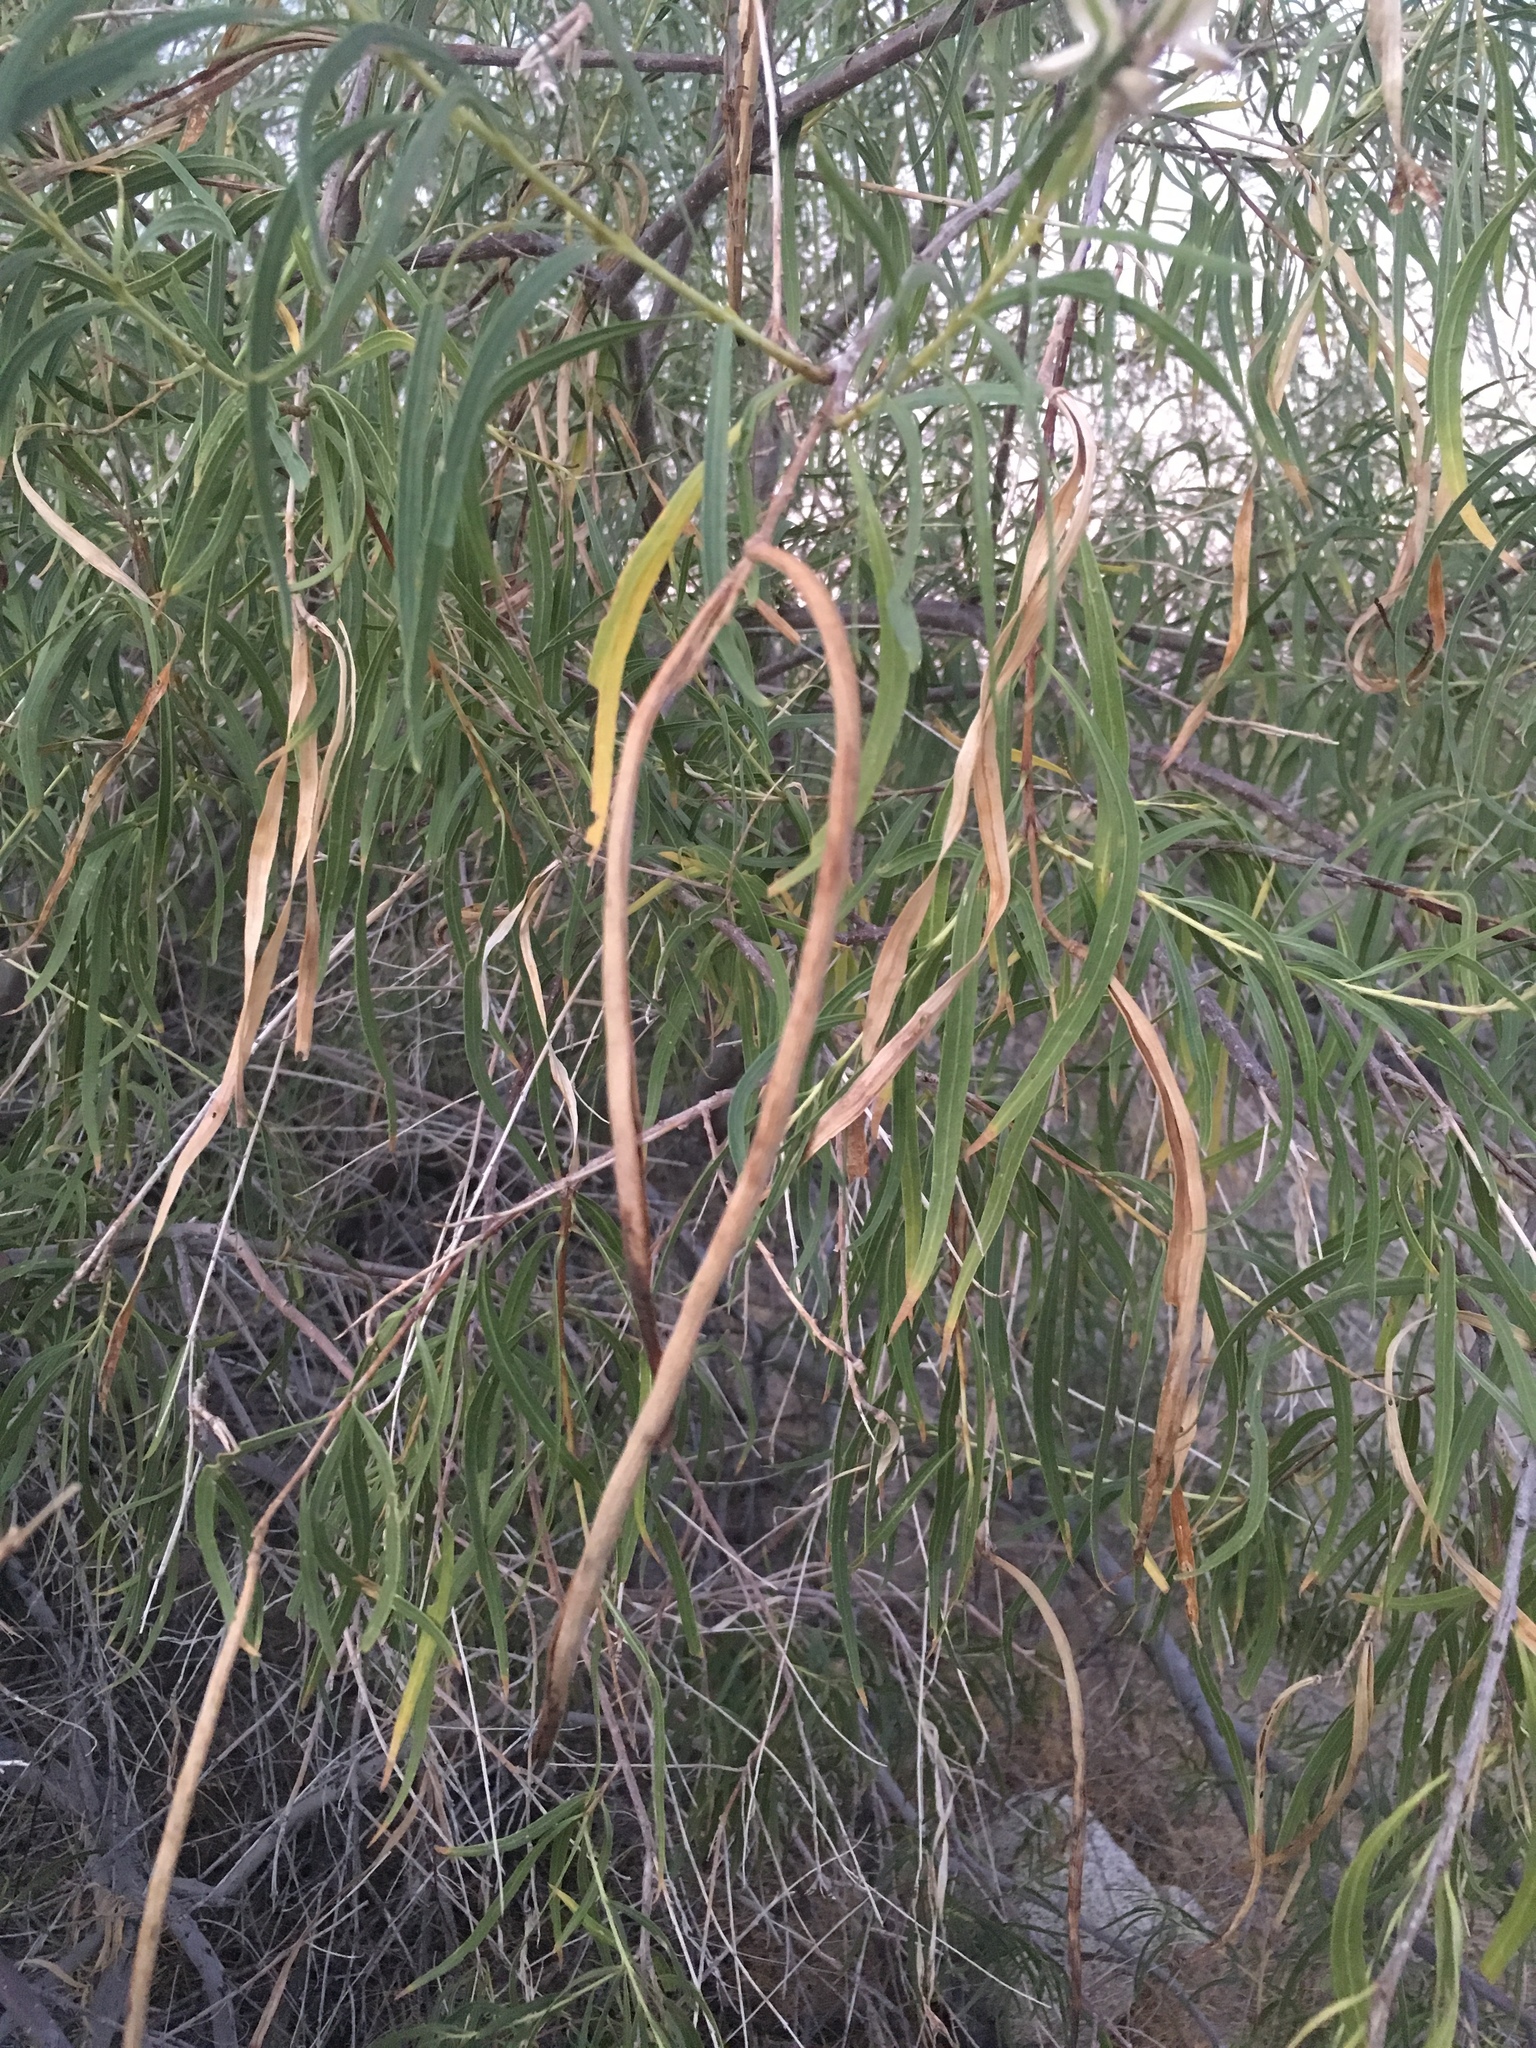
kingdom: Plantae
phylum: Tracheophyta
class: Magnoliopsida
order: Lamiales
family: Bignoniaceae
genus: Chilopsis
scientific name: Chilopsis linearis
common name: Desert-willow
